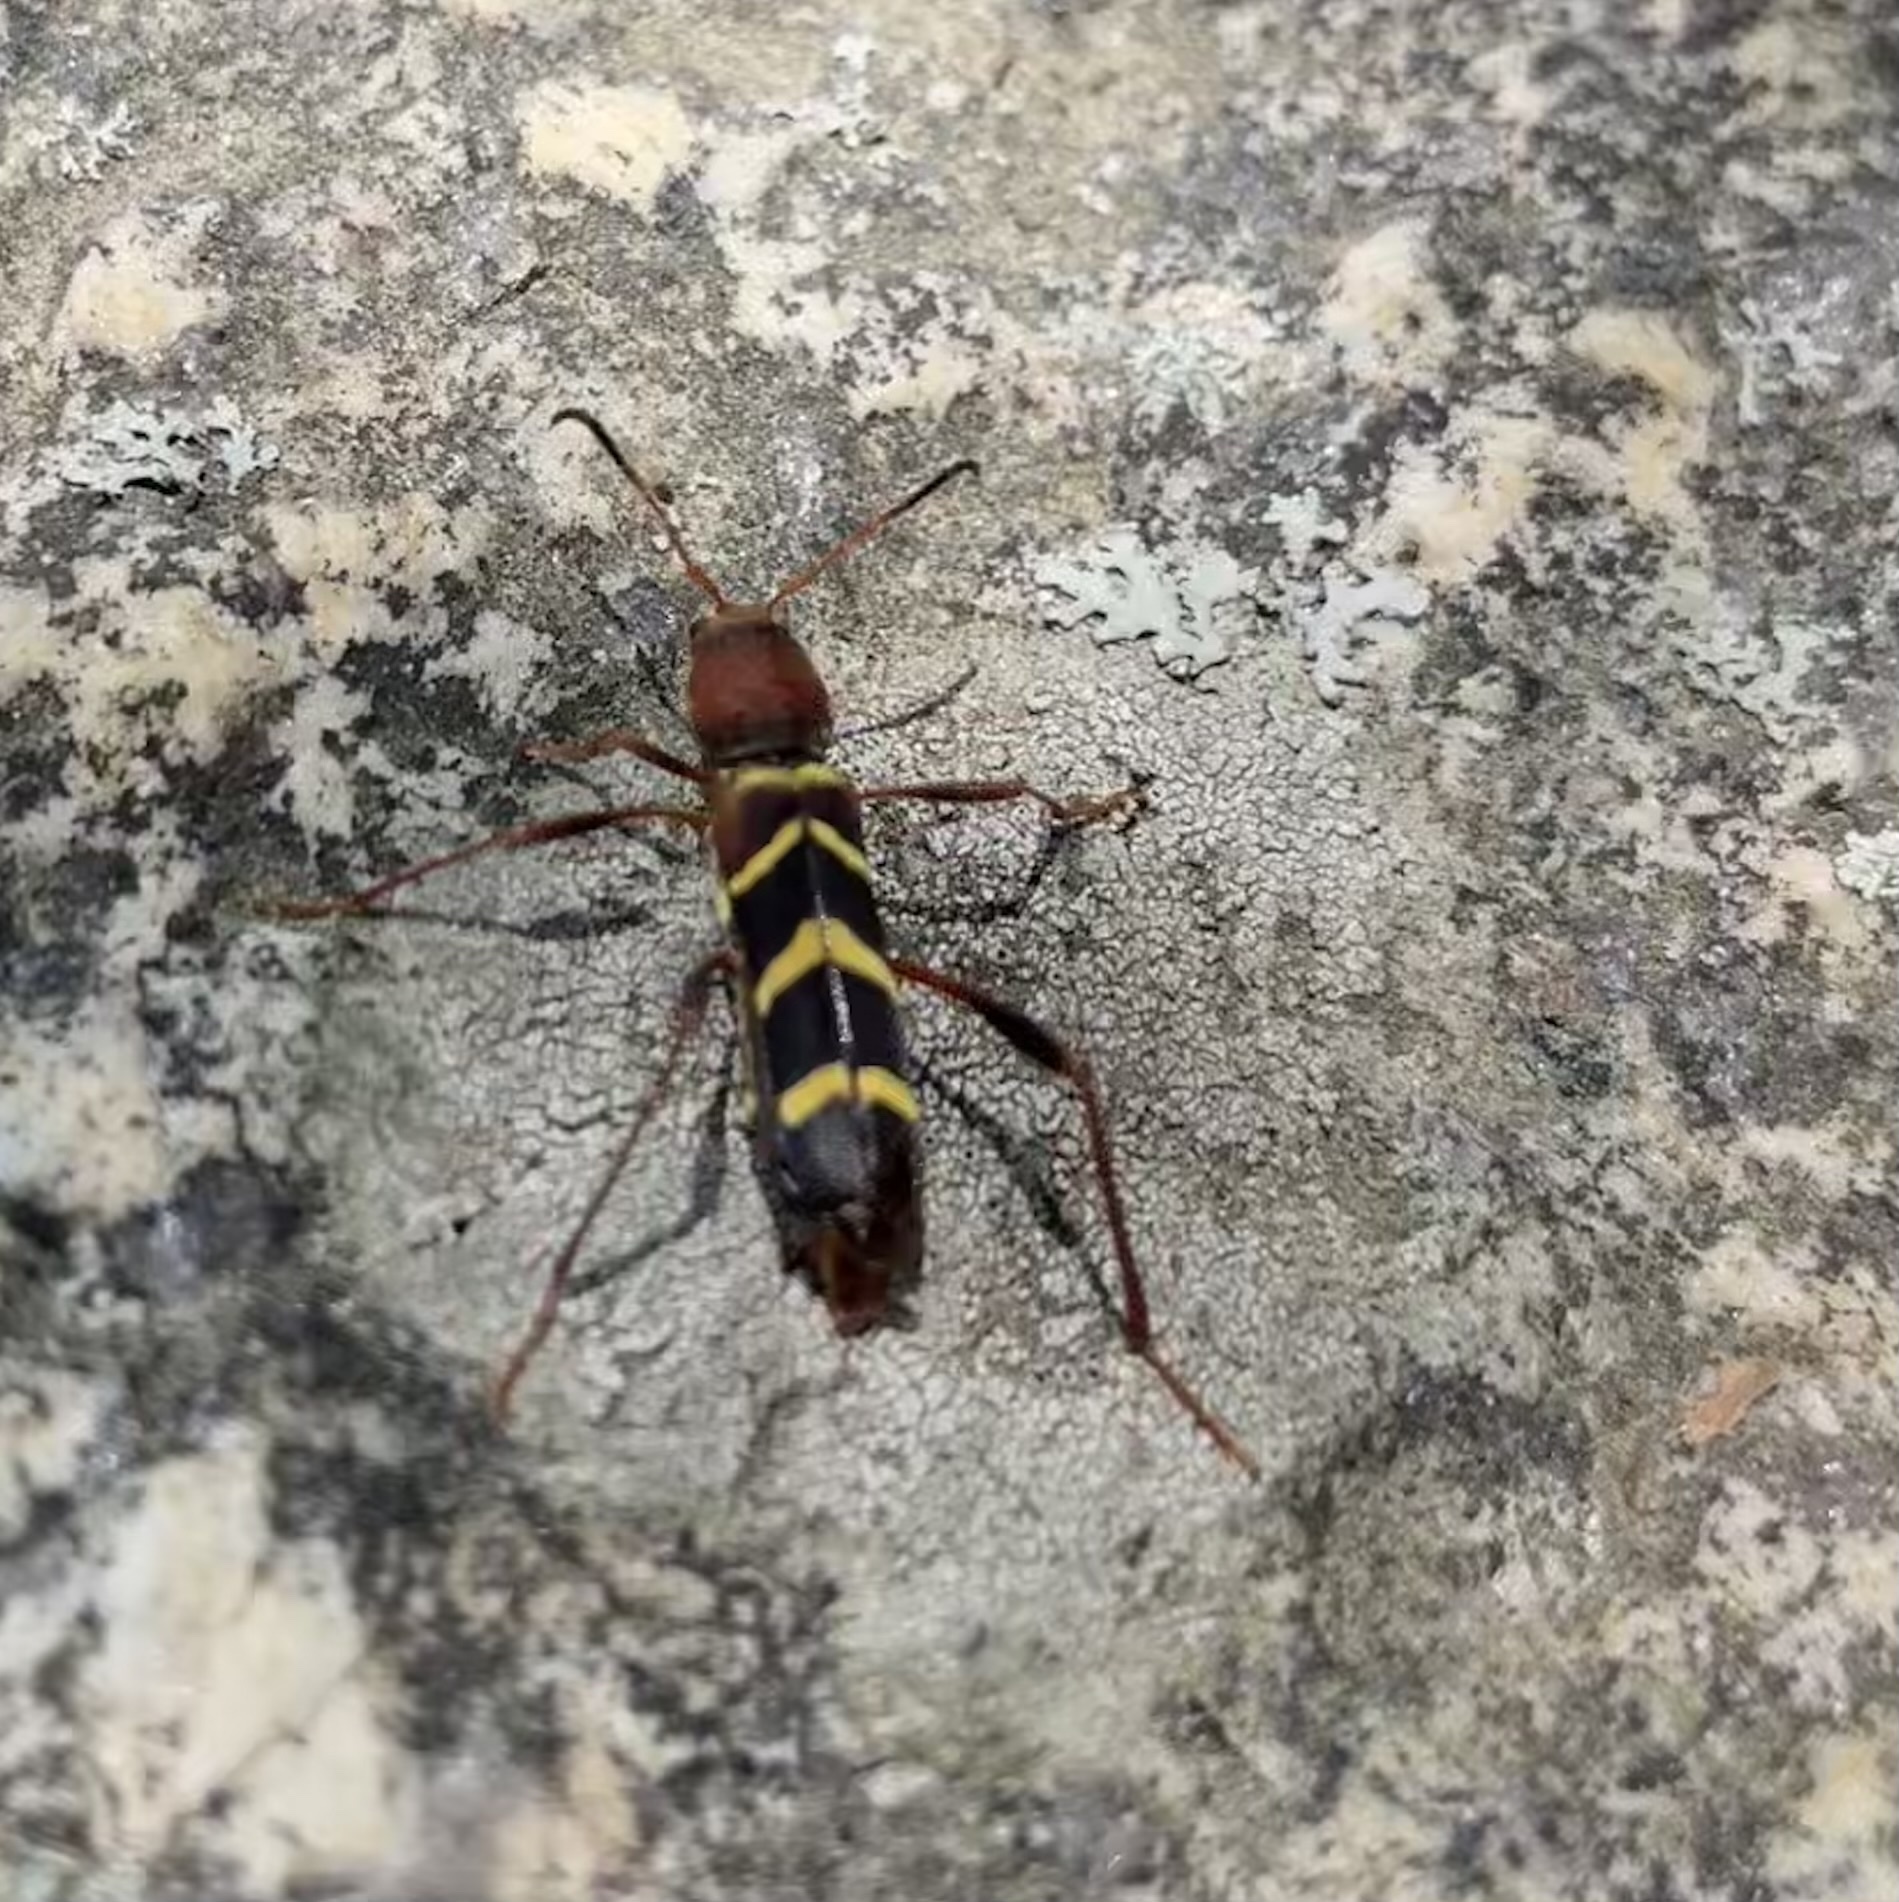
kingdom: Animalia
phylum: Arthropoda
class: Insecta
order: Coleoptera
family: Cerambycidae
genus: Neoclytus
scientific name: Neoclytus acuminatus
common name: Read-headed ash borer
